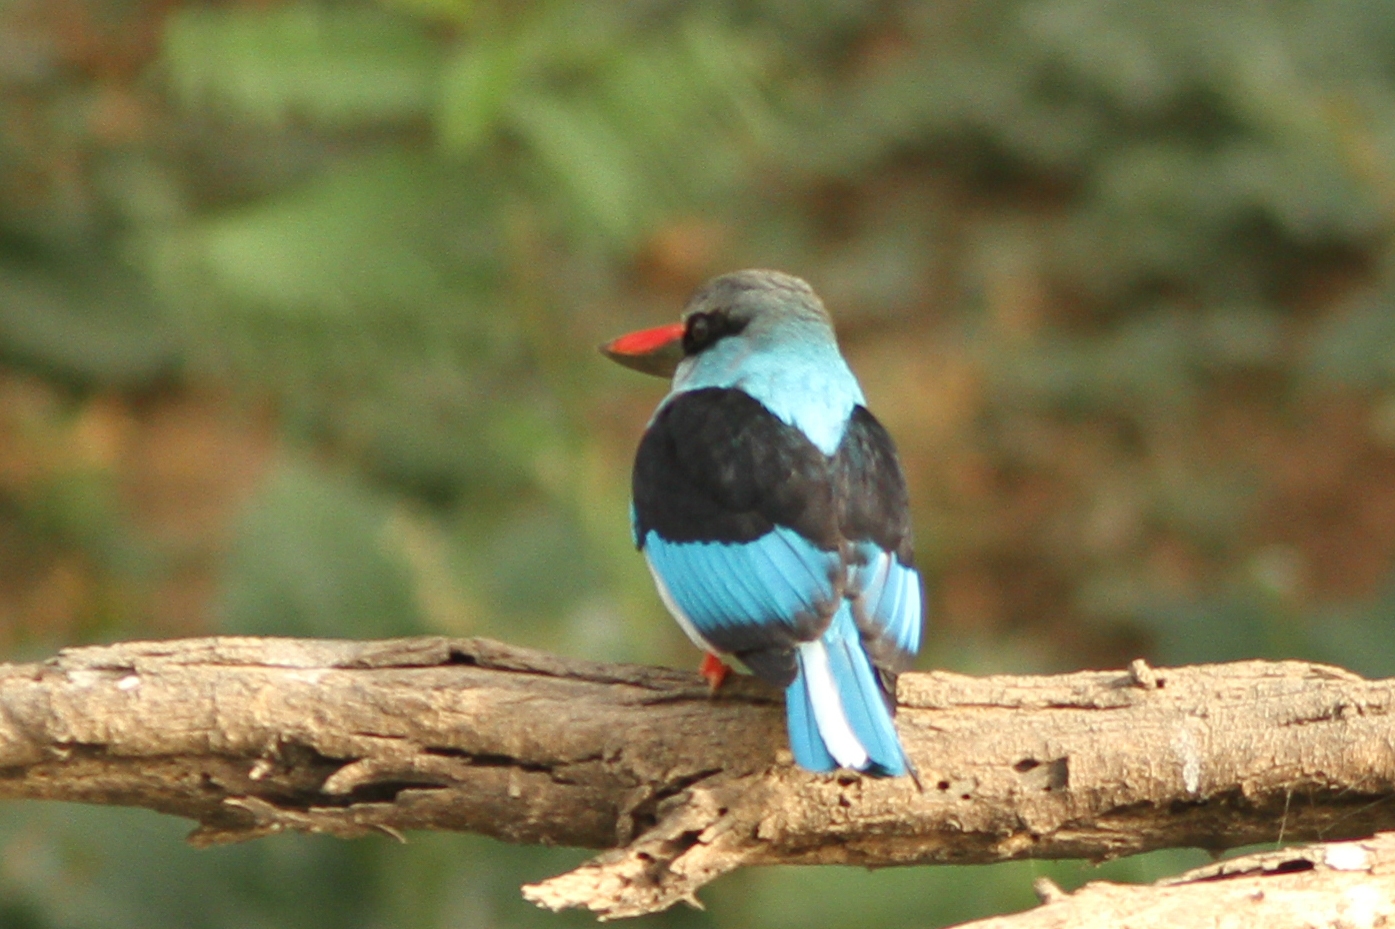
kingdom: Animalia
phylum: Chordata
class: Aves
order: Coraciiformes
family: Alcedinidae
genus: Halcyon
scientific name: Halcyon malimbica
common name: Blue-breasted kingfisher
